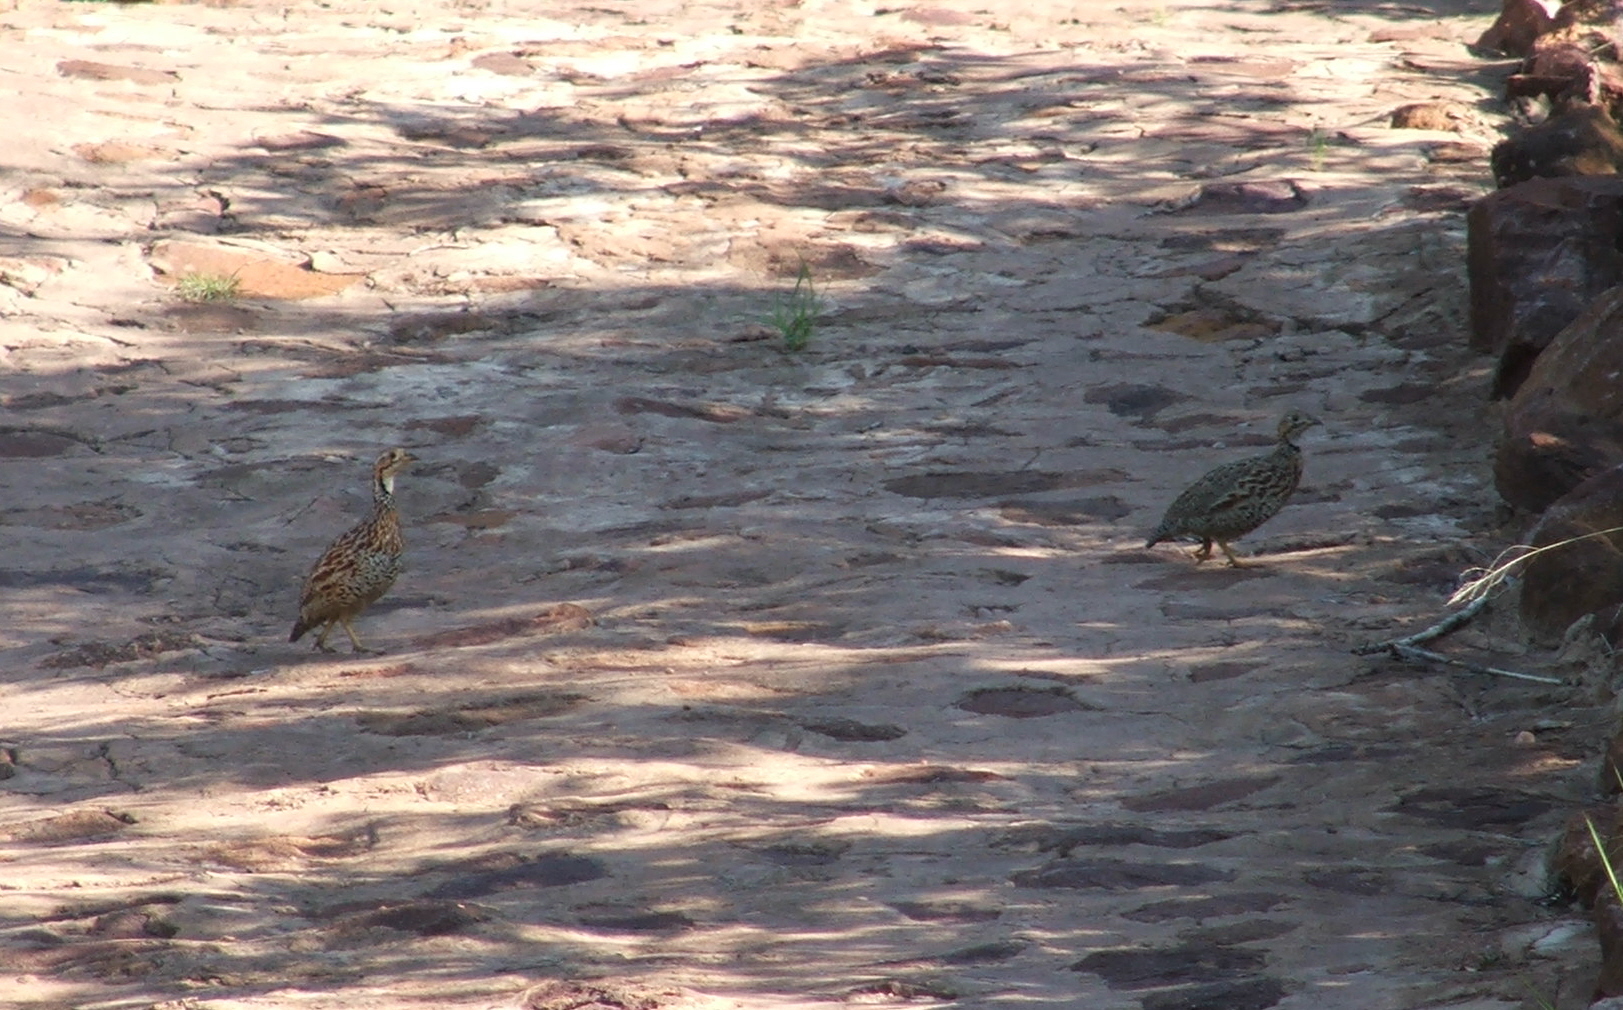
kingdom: Animalia
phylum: Chordata
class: Aves
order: Galliformes
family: Phasianidae
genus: Scleroptila
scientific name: Scleroptila shelleyi
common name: Shelley's francolin
